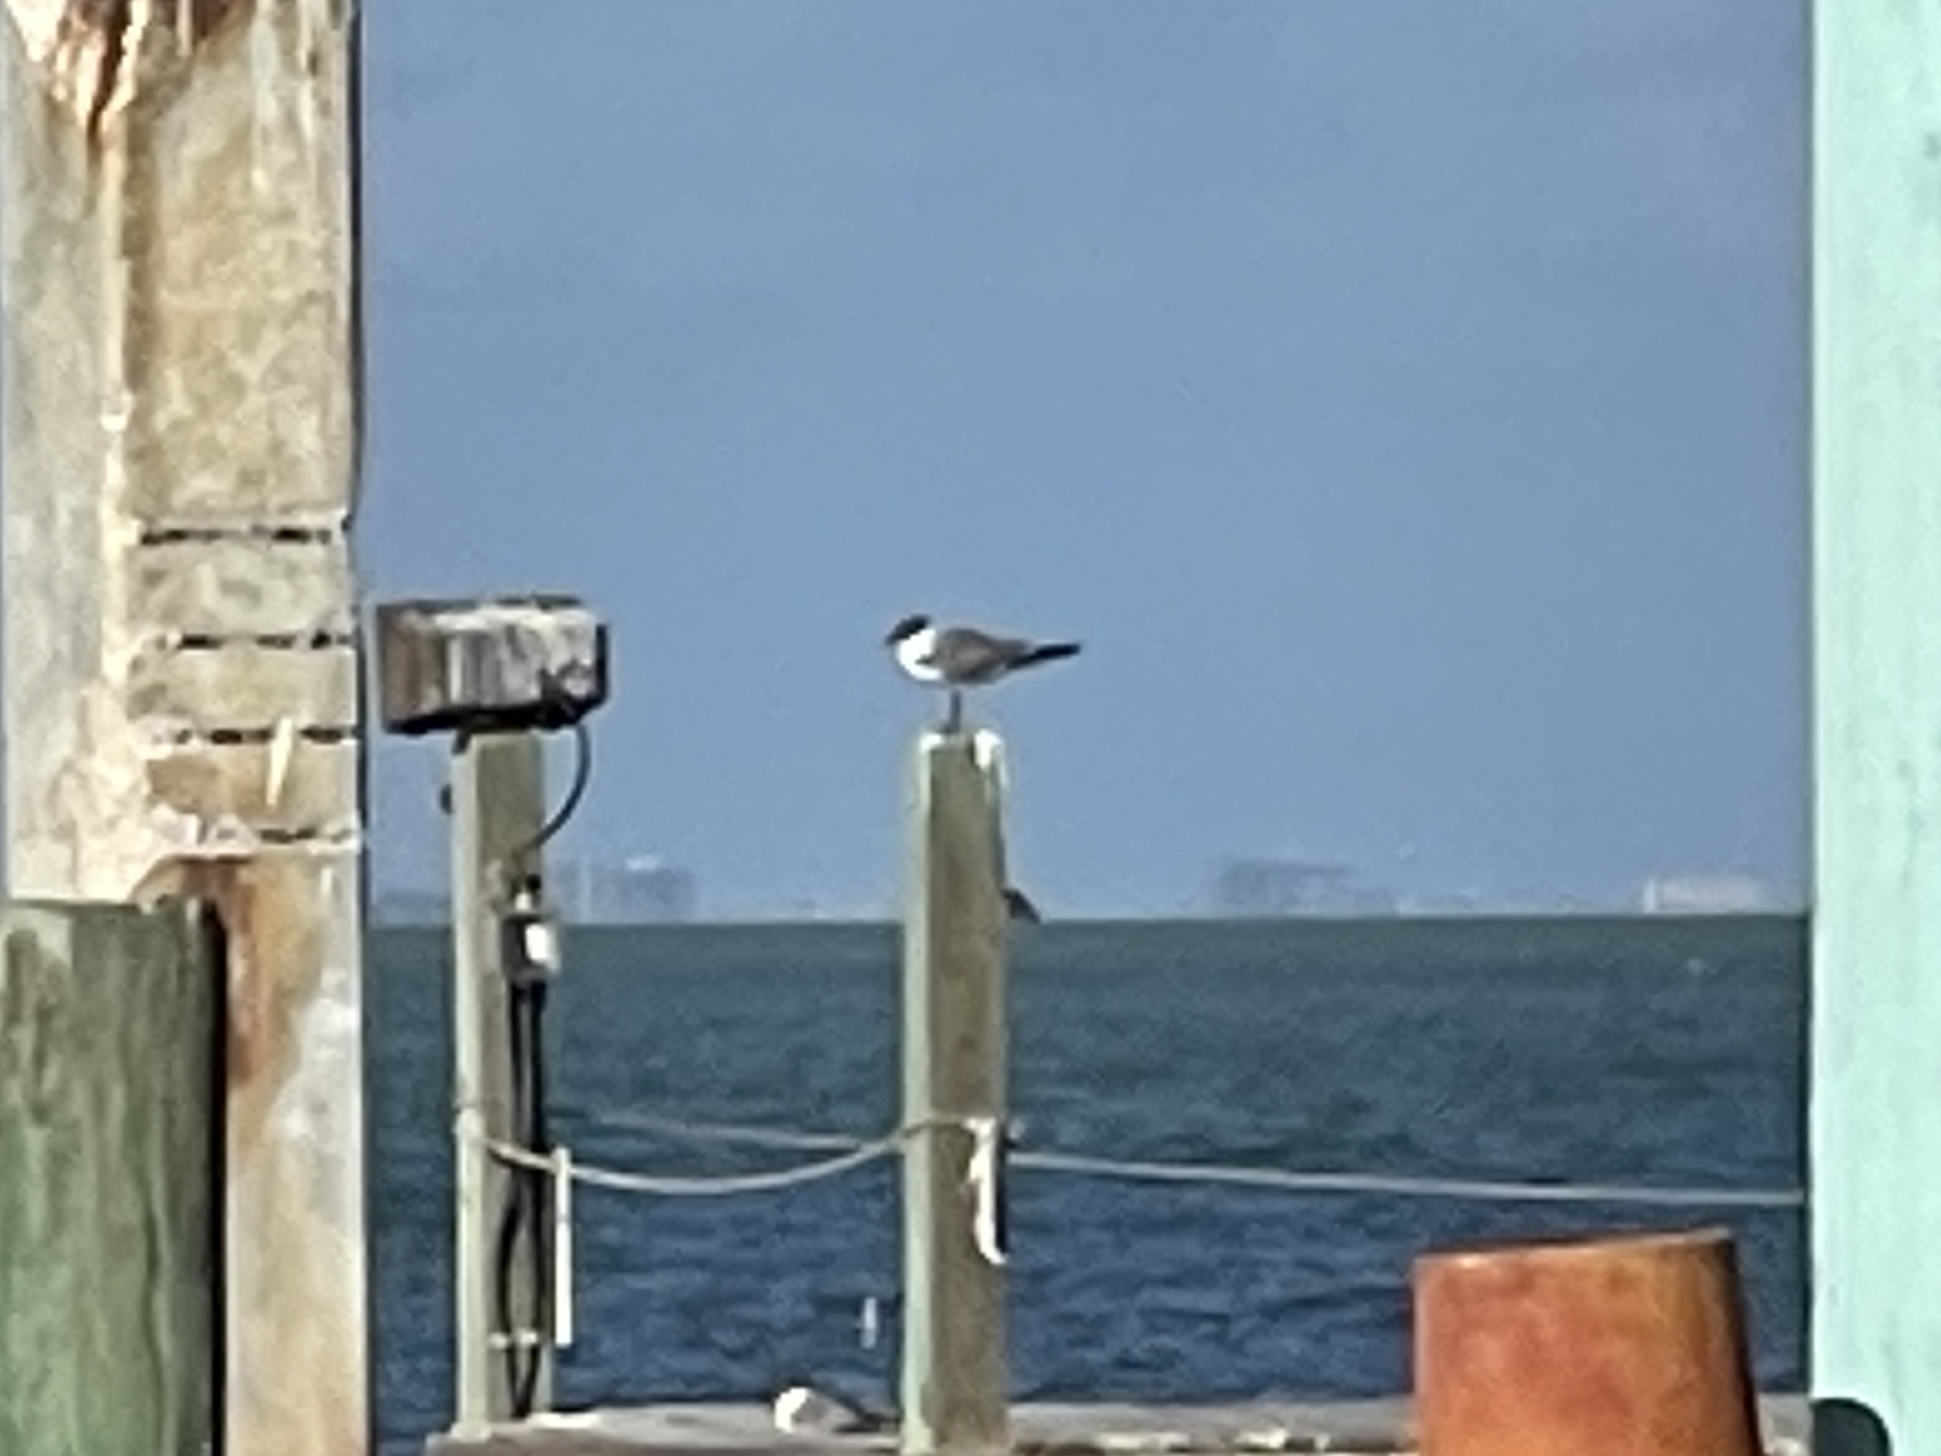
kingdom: Animalia
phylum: Chordata
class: Aves
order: Charadriiformes
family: Laridae
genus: Leucophaeus
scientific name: Leucophaeus atricilla
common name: Laughing gull
